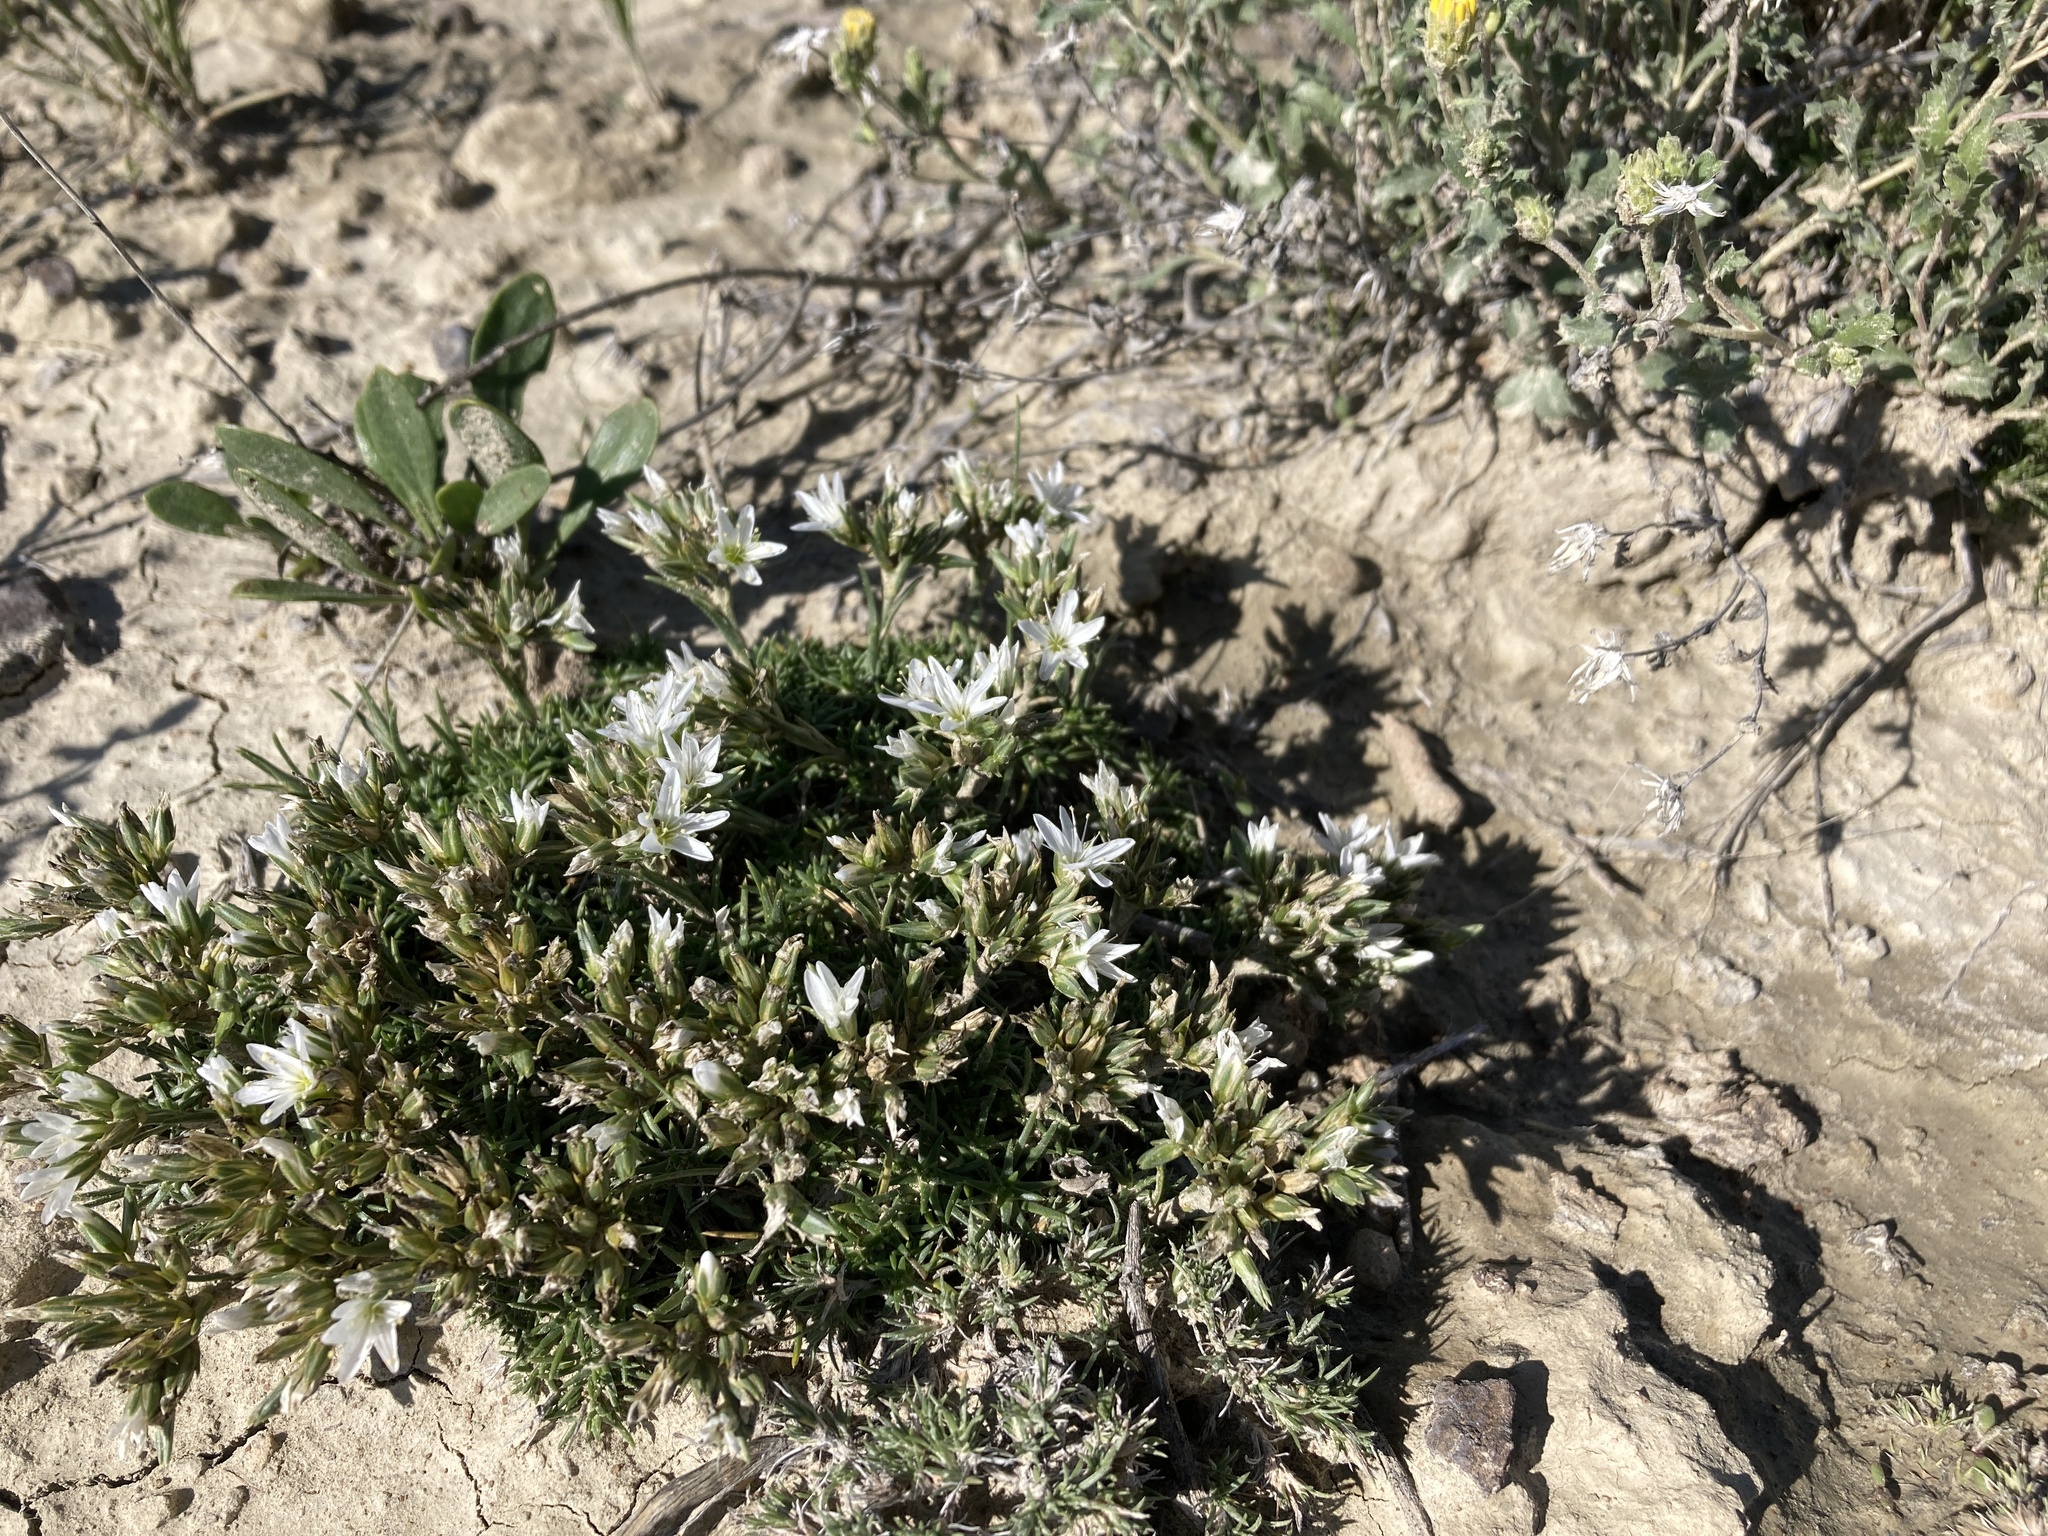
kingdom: Plantae
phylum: Tracheophyta
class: Magnoliopsida
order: Caryophyllales
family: Caryophyllaceae
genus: Eremogone
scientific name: Eremogone hookeri
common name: Hooker's sandwort
